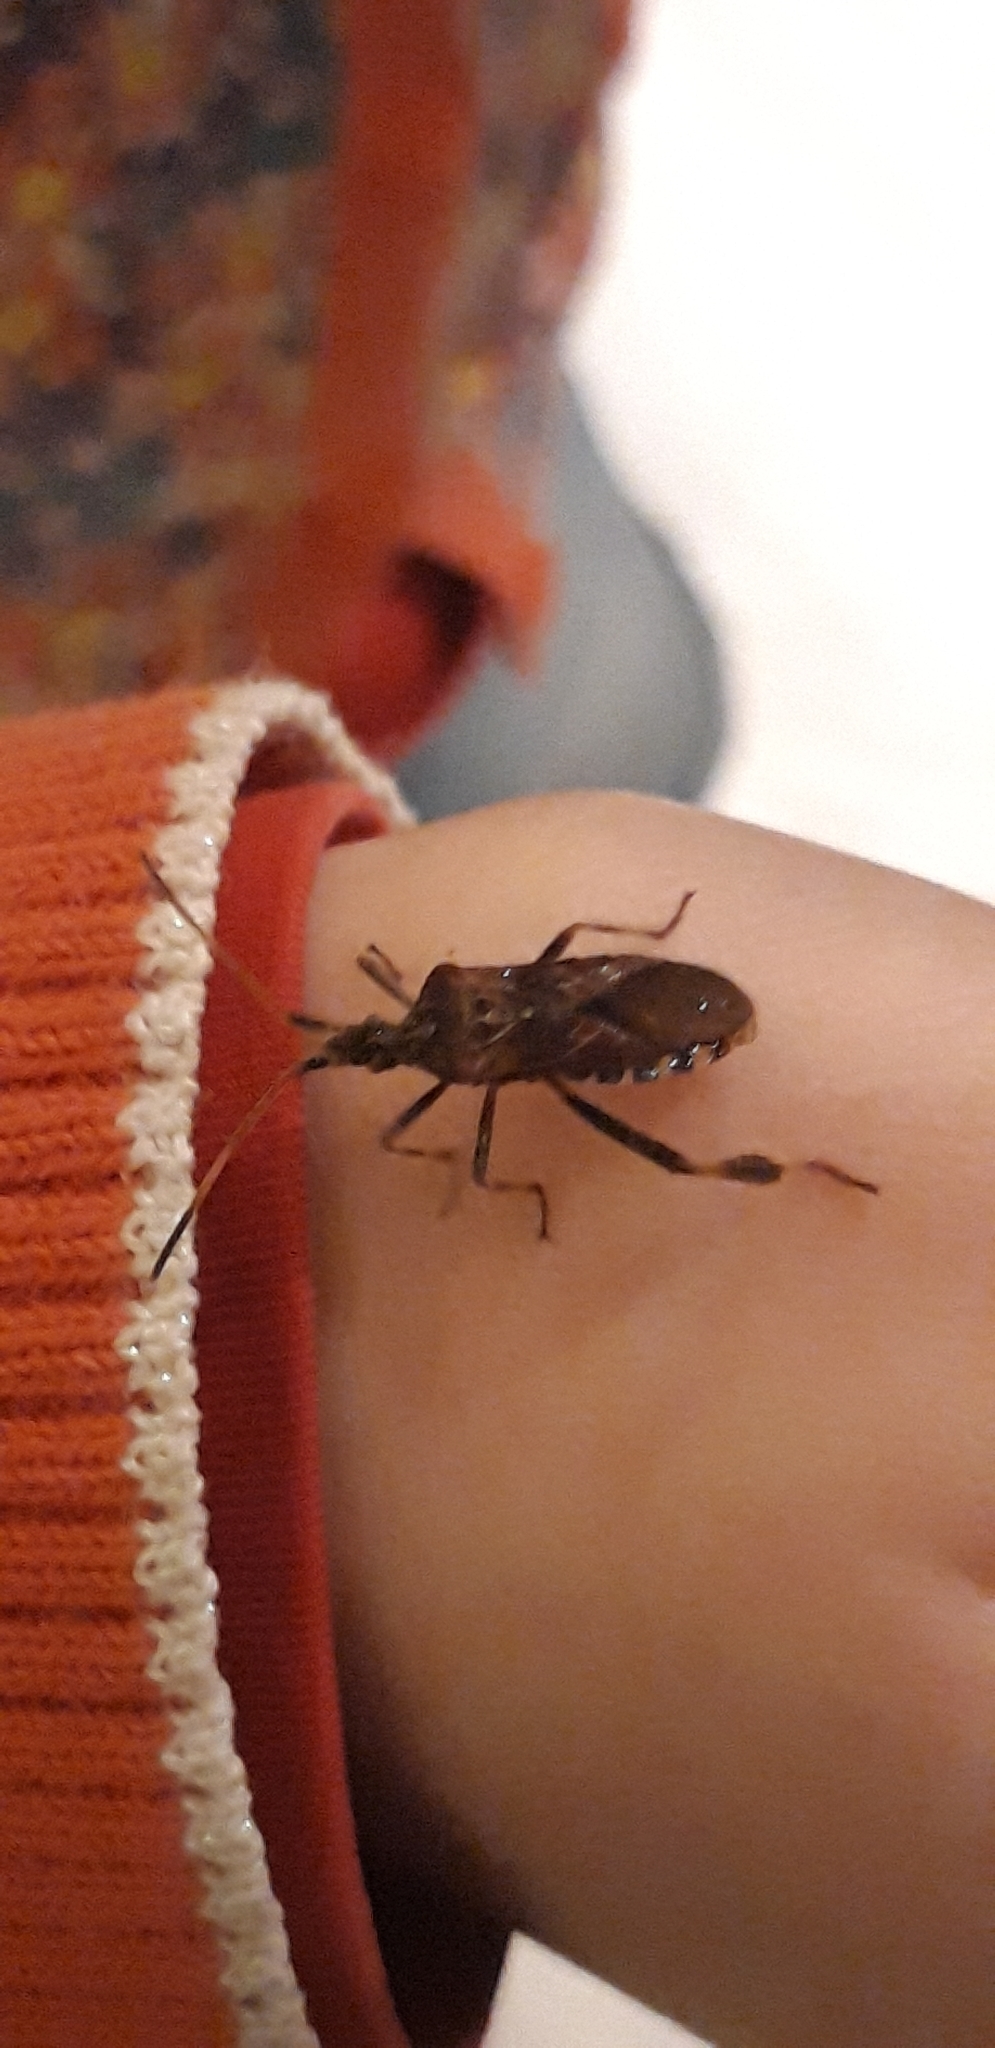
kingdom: Animalia
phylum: Arthropoda
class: Insecta
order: Hemiptera
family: Coreidae
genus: Leptoglossus
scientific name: Leptoglossus occidentalis
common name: Western conifer-seed bug
